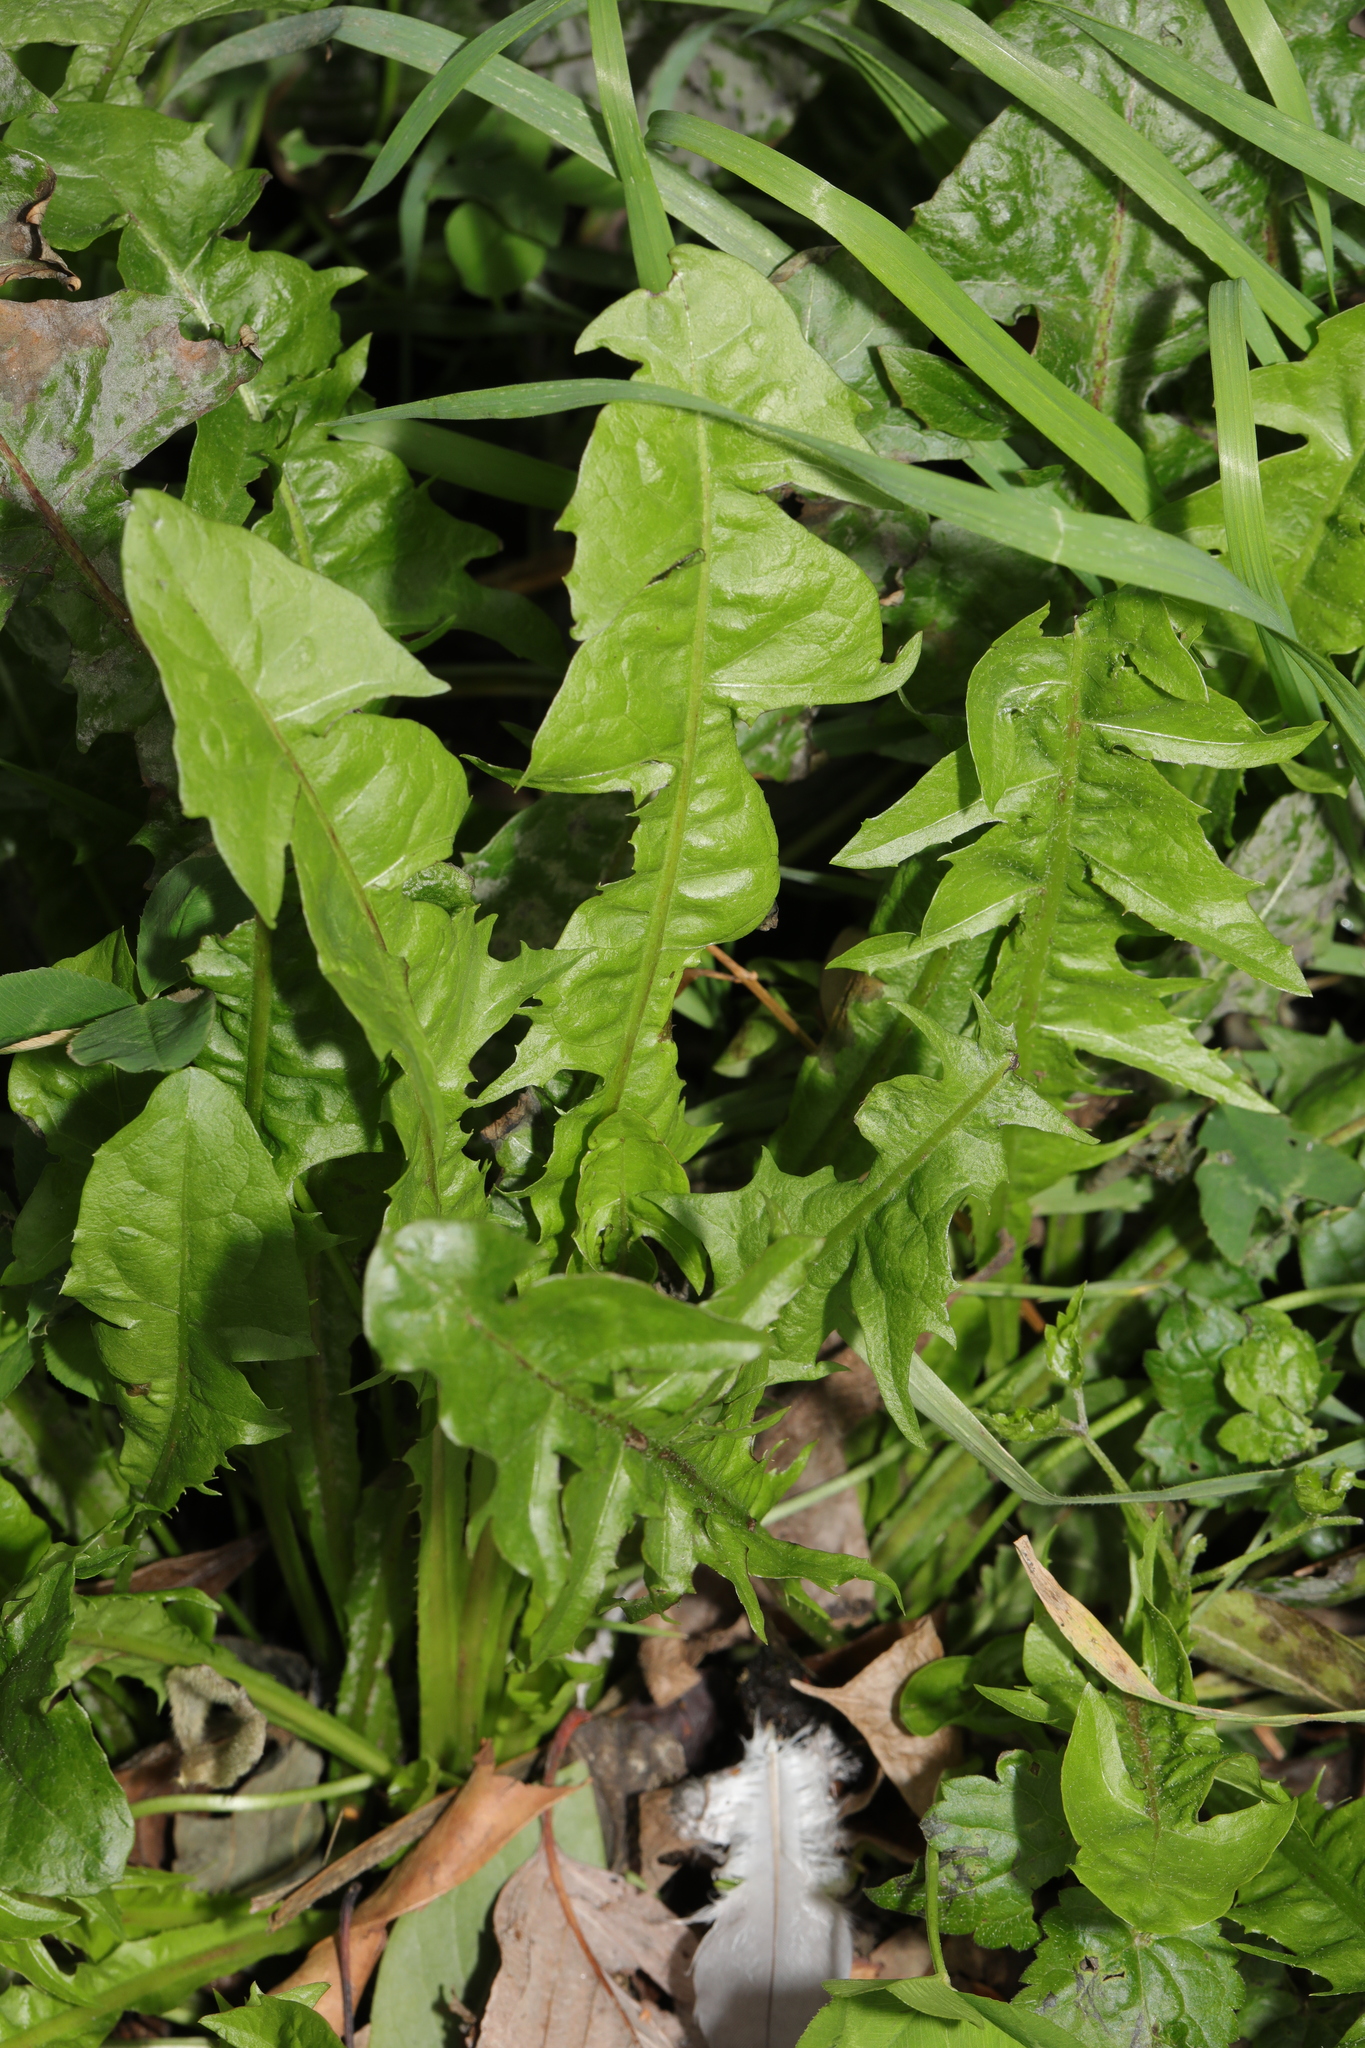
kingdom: Plantae
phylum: Tracheophyta
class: Magnoliopsida
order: Asterales
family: Asteraceae
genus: Taraxacum
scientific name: Taraxacum officinale
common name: Common dandelion
